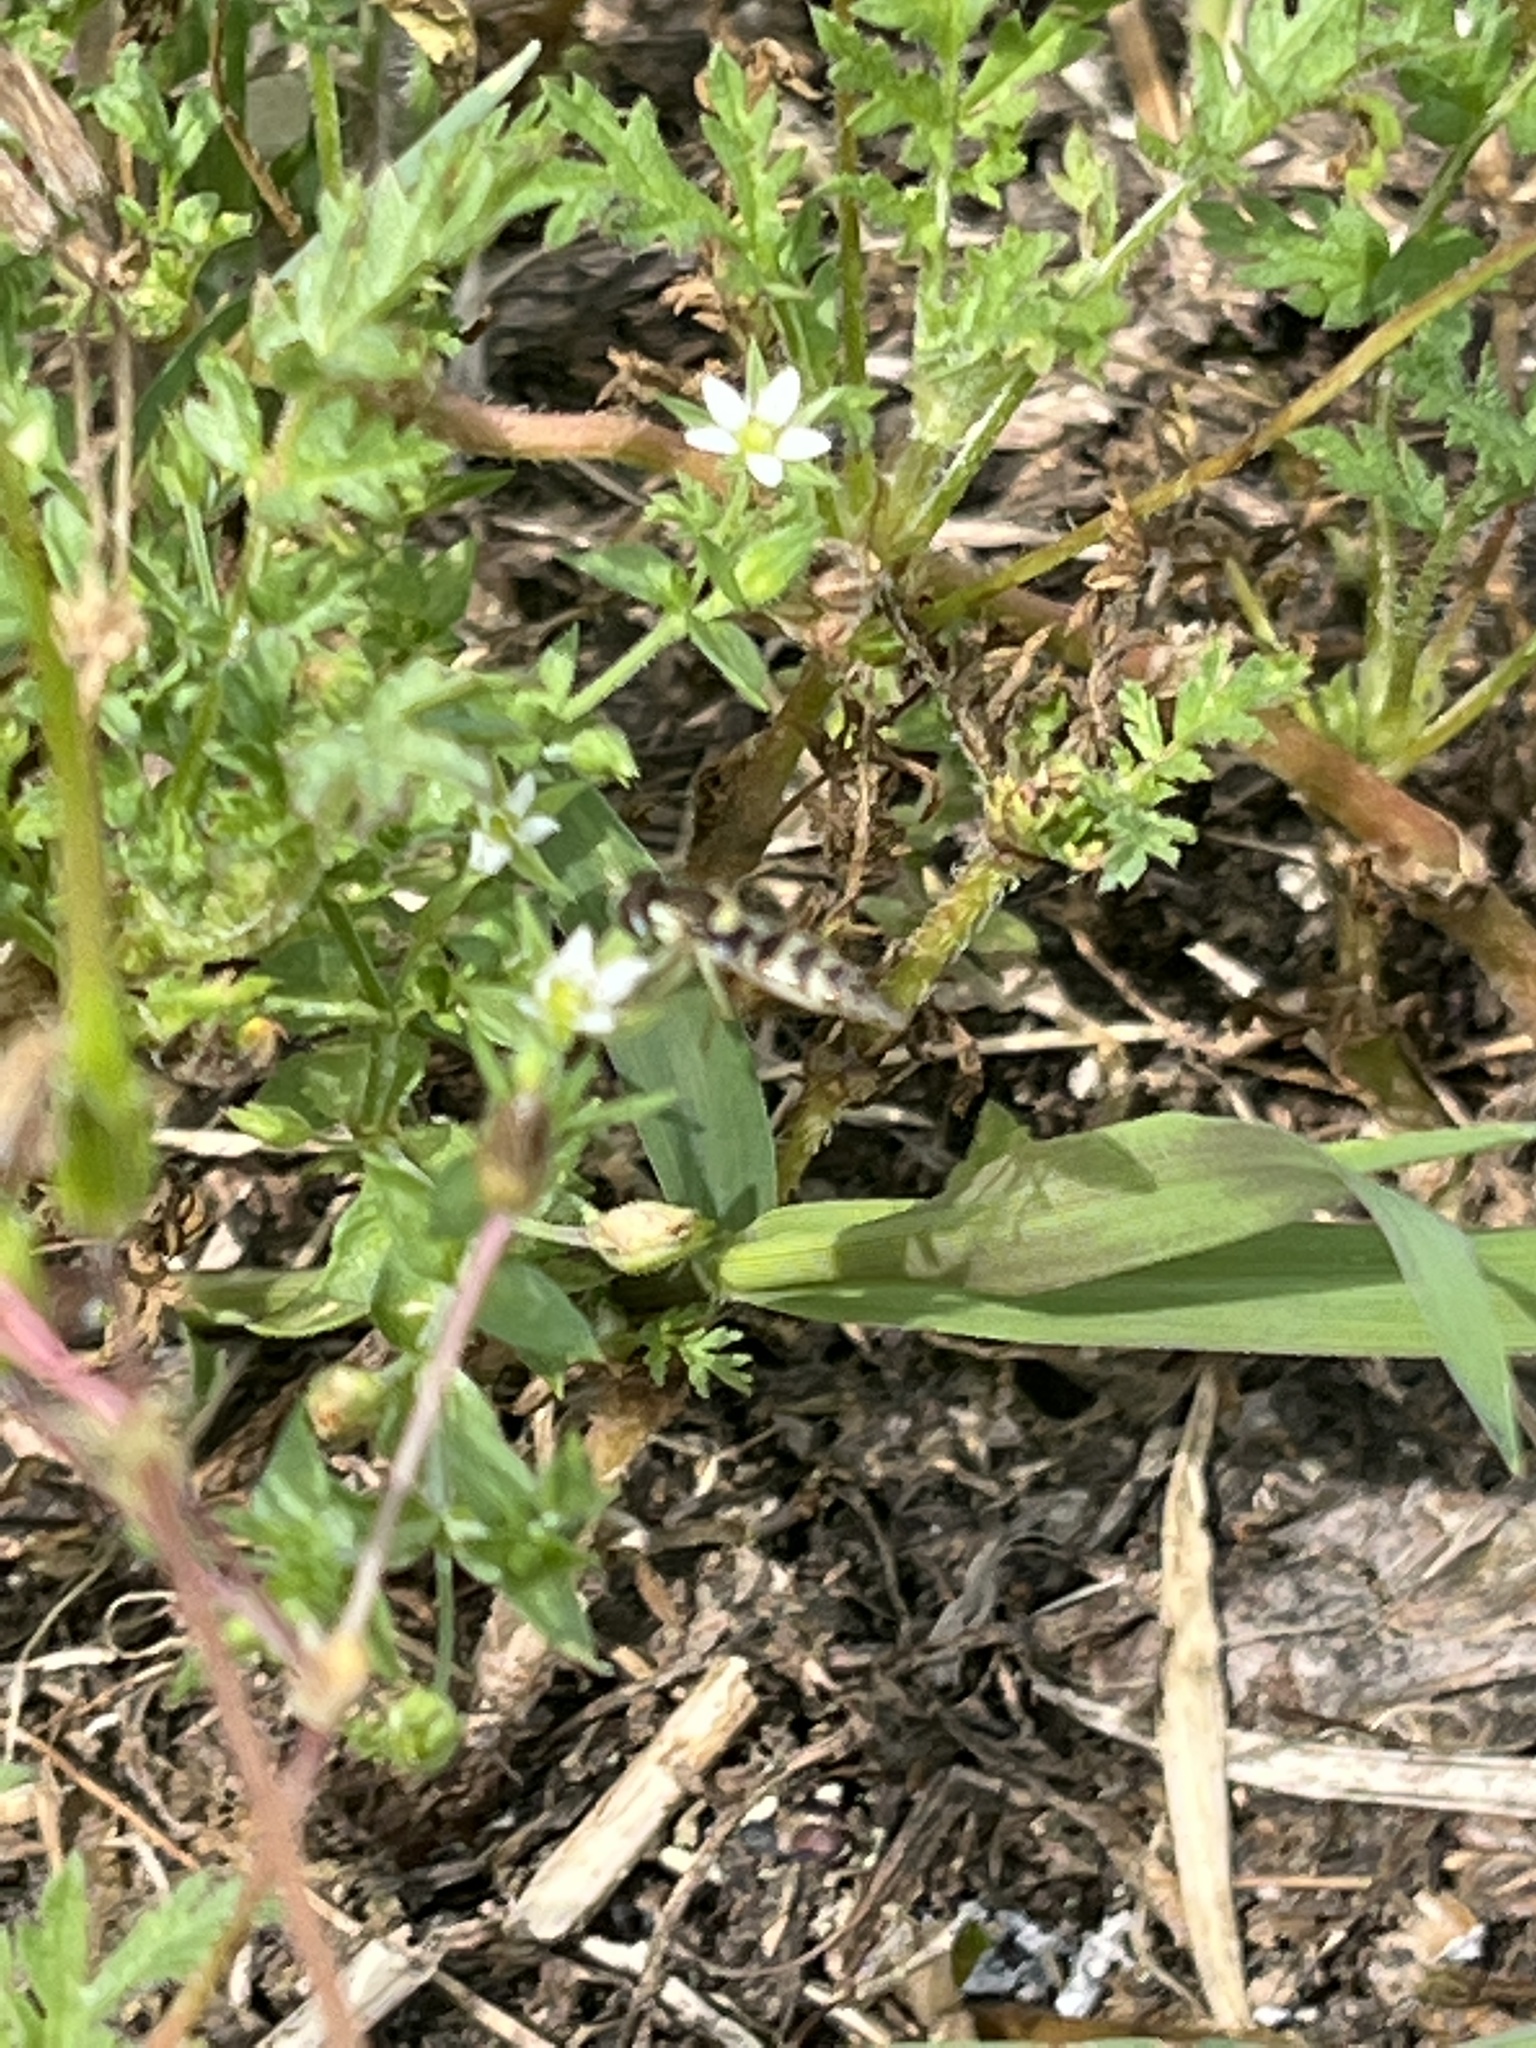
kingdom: Animalia
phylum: Arthropoda
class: Insecta
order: Diptera
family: Syrphidae
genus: Sphaerophoria
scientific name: Sphaerophoria
